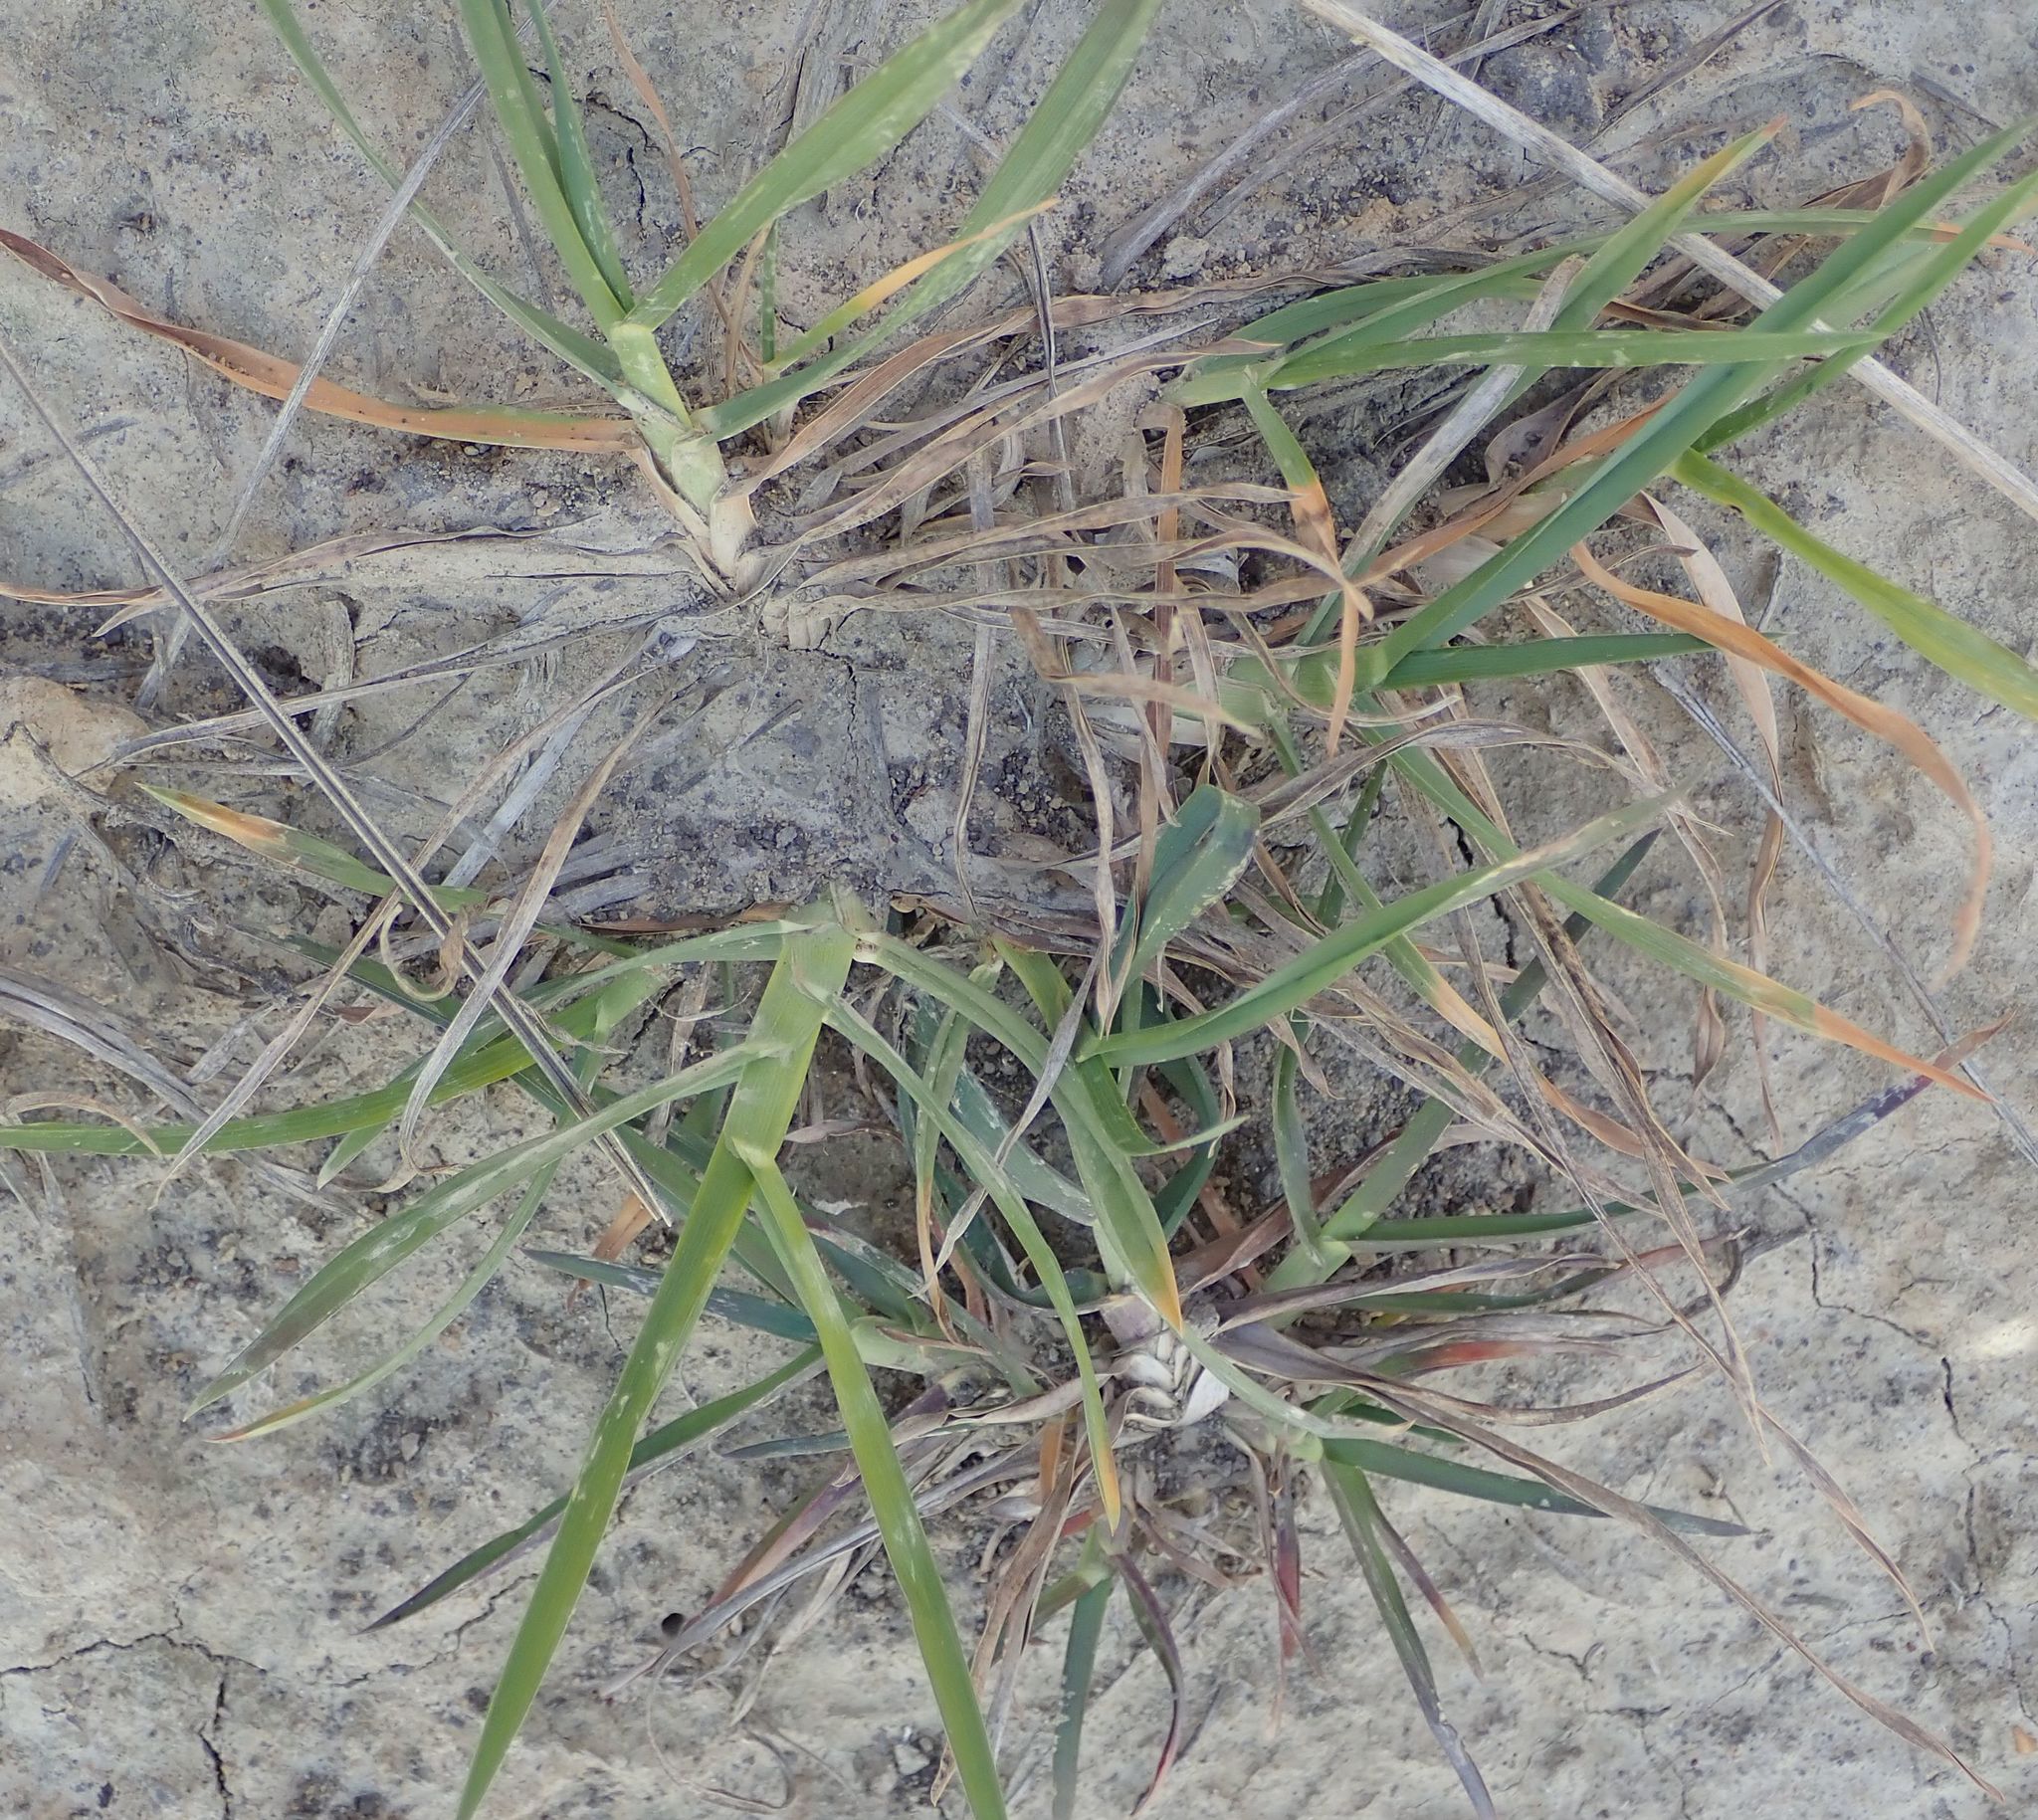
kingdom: Plantae
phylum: Tracheophyta
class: Liliopsida
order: Poales
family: Poaceae
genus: Dactylis
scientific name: Dactylis glomerata
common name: Orchardgrass
